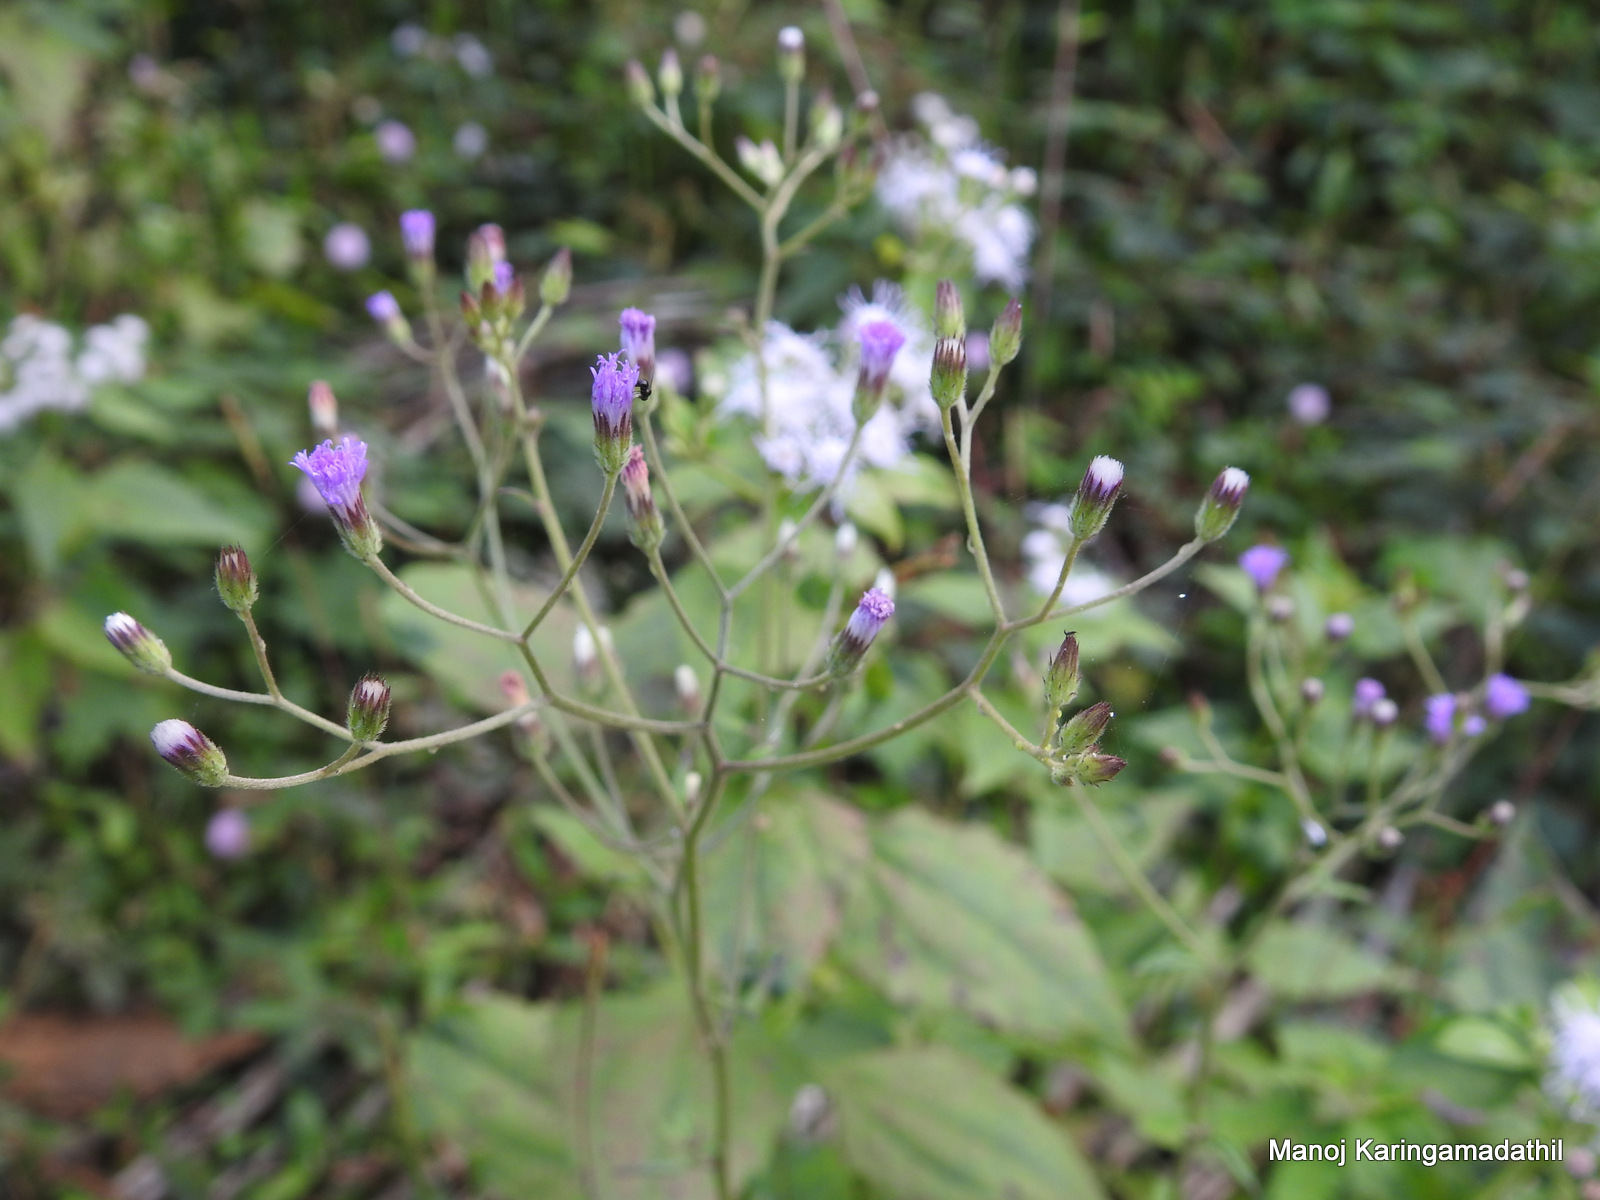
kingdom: Plantae
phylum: Tracheophyta
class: Magnoliopsida
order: Asterales
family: Asteraceae
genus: Cyanthillium
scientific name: Cyanthillium cinereum
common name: Little ironweed
